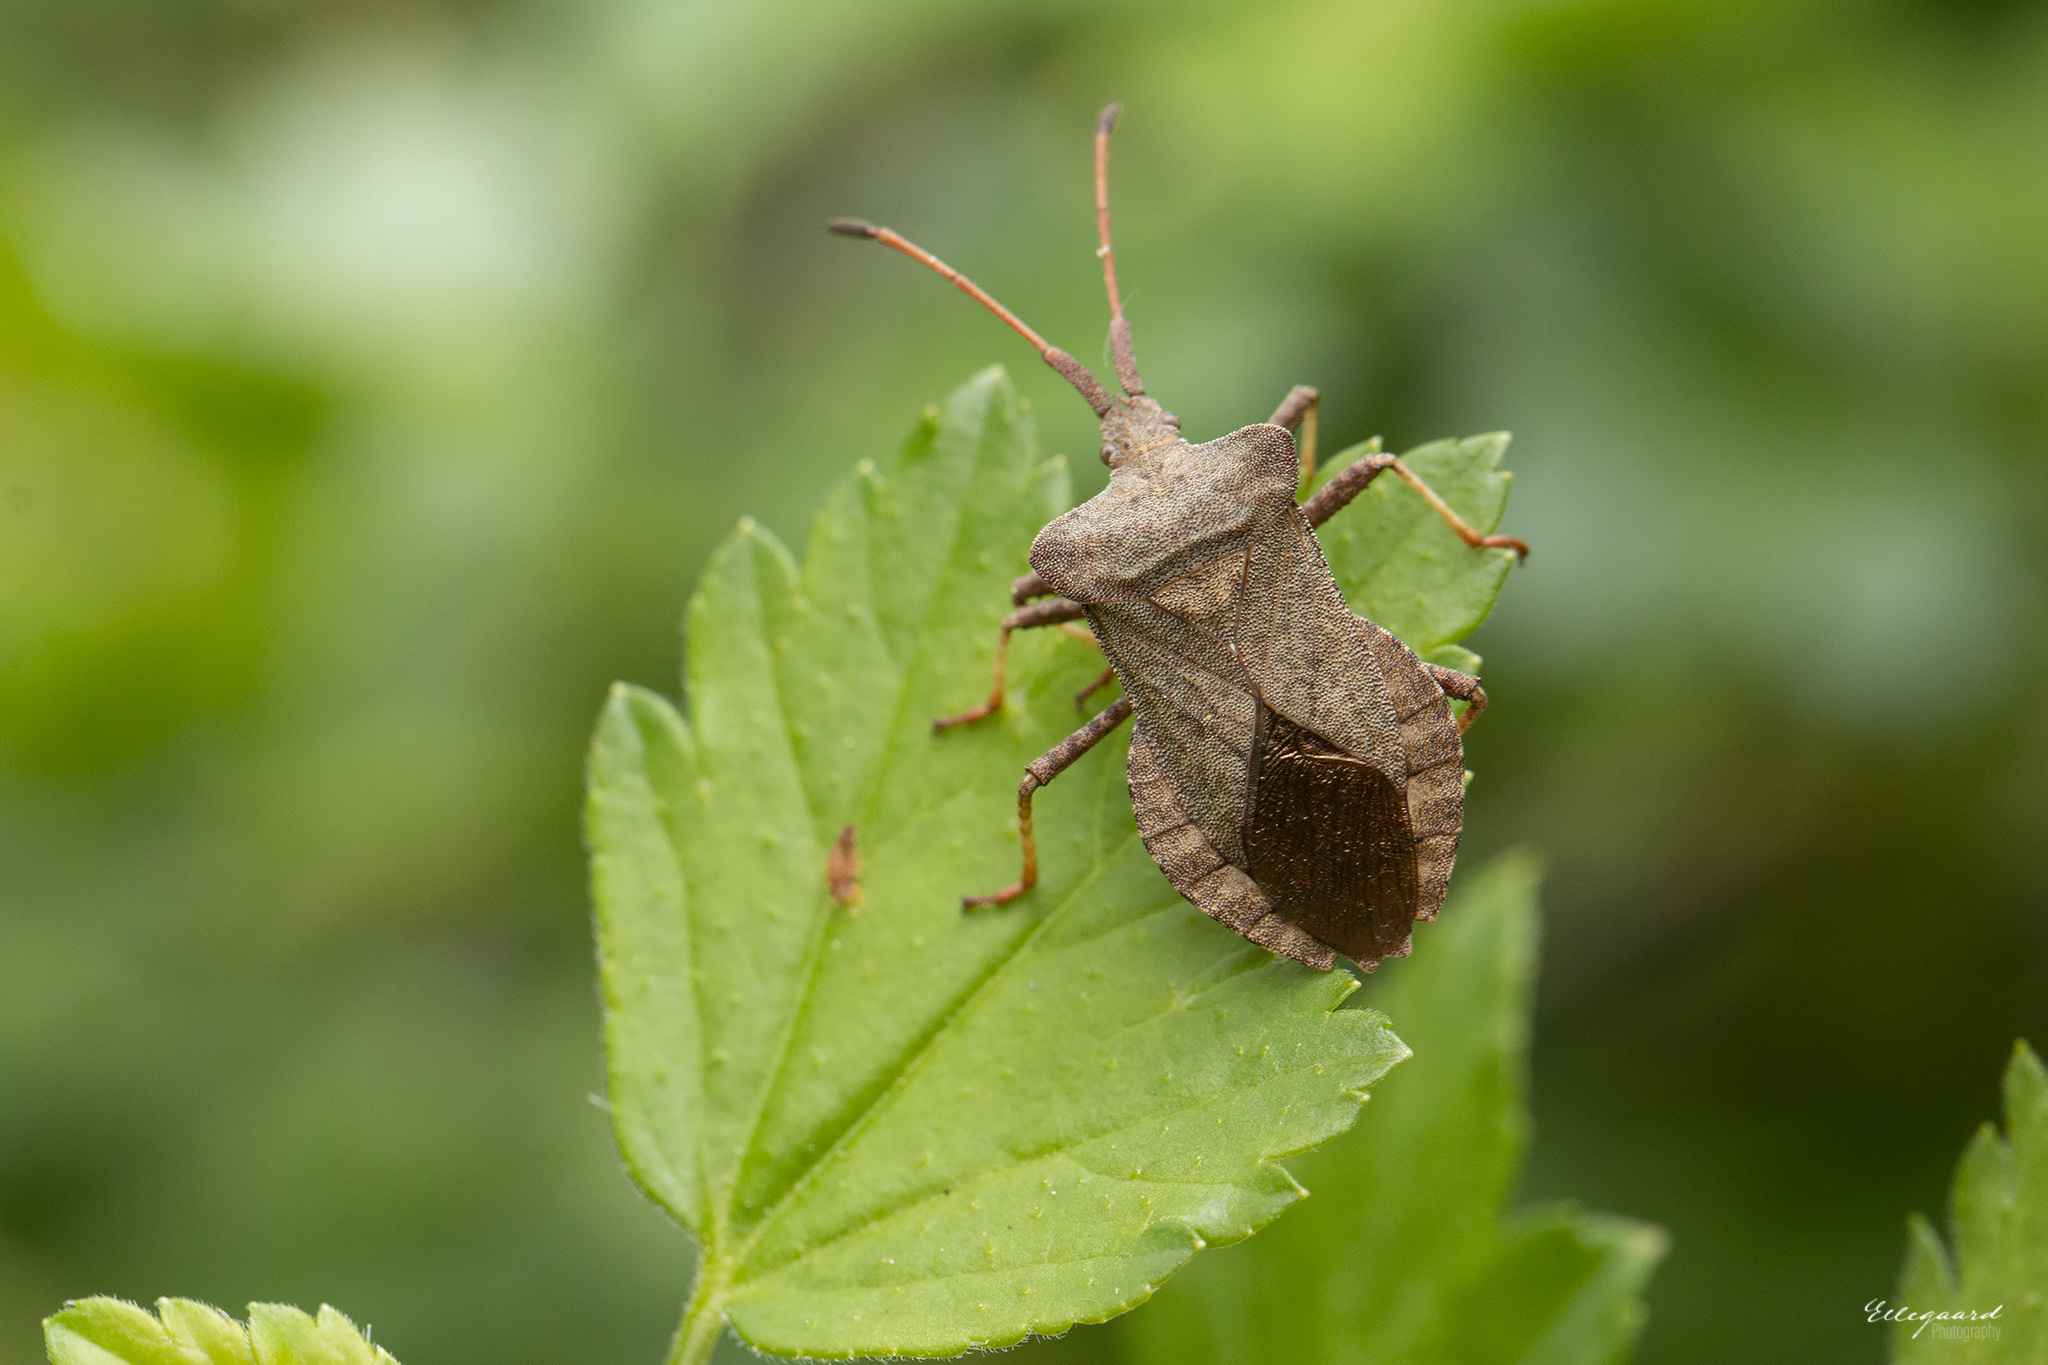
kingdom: Animalia
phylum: Arthropoda
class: Insecta
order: Hemiptera
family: Coreidae
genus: Coreus
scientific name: Coreus marginatus
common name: Dock bug
